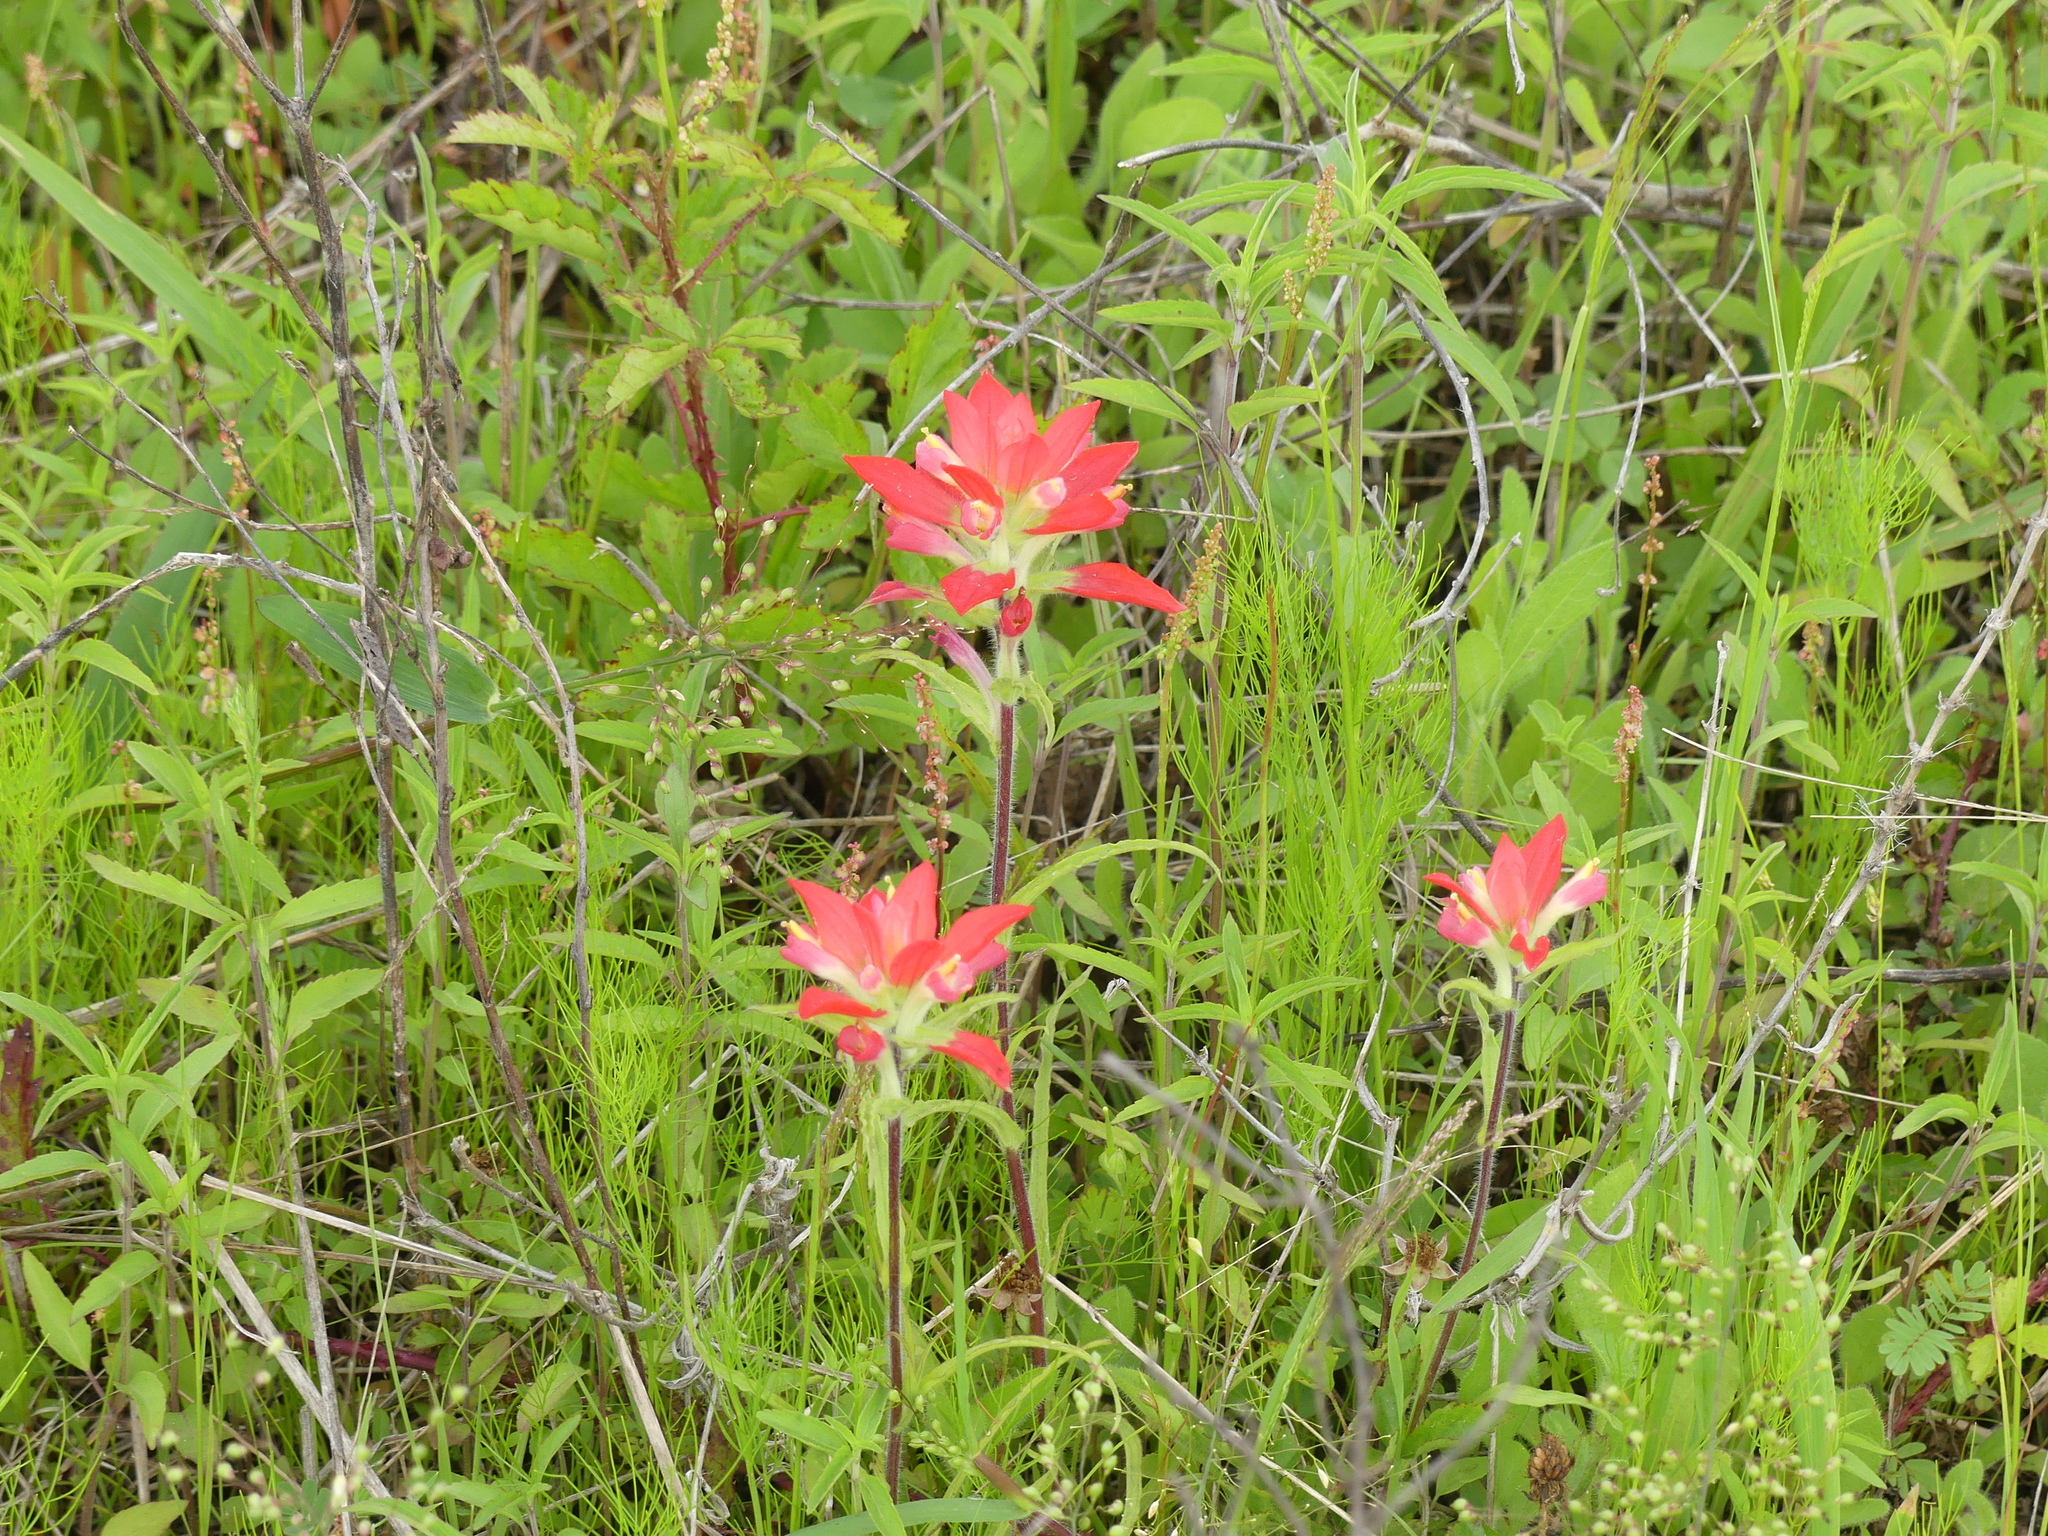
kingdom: Plantae
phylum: Tracheophyta
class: Magnoliopsida
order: Lamiales
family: Orobanchaceae
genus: Castilleja
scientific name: Castilleja indivisa
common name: Texas paintbrush
